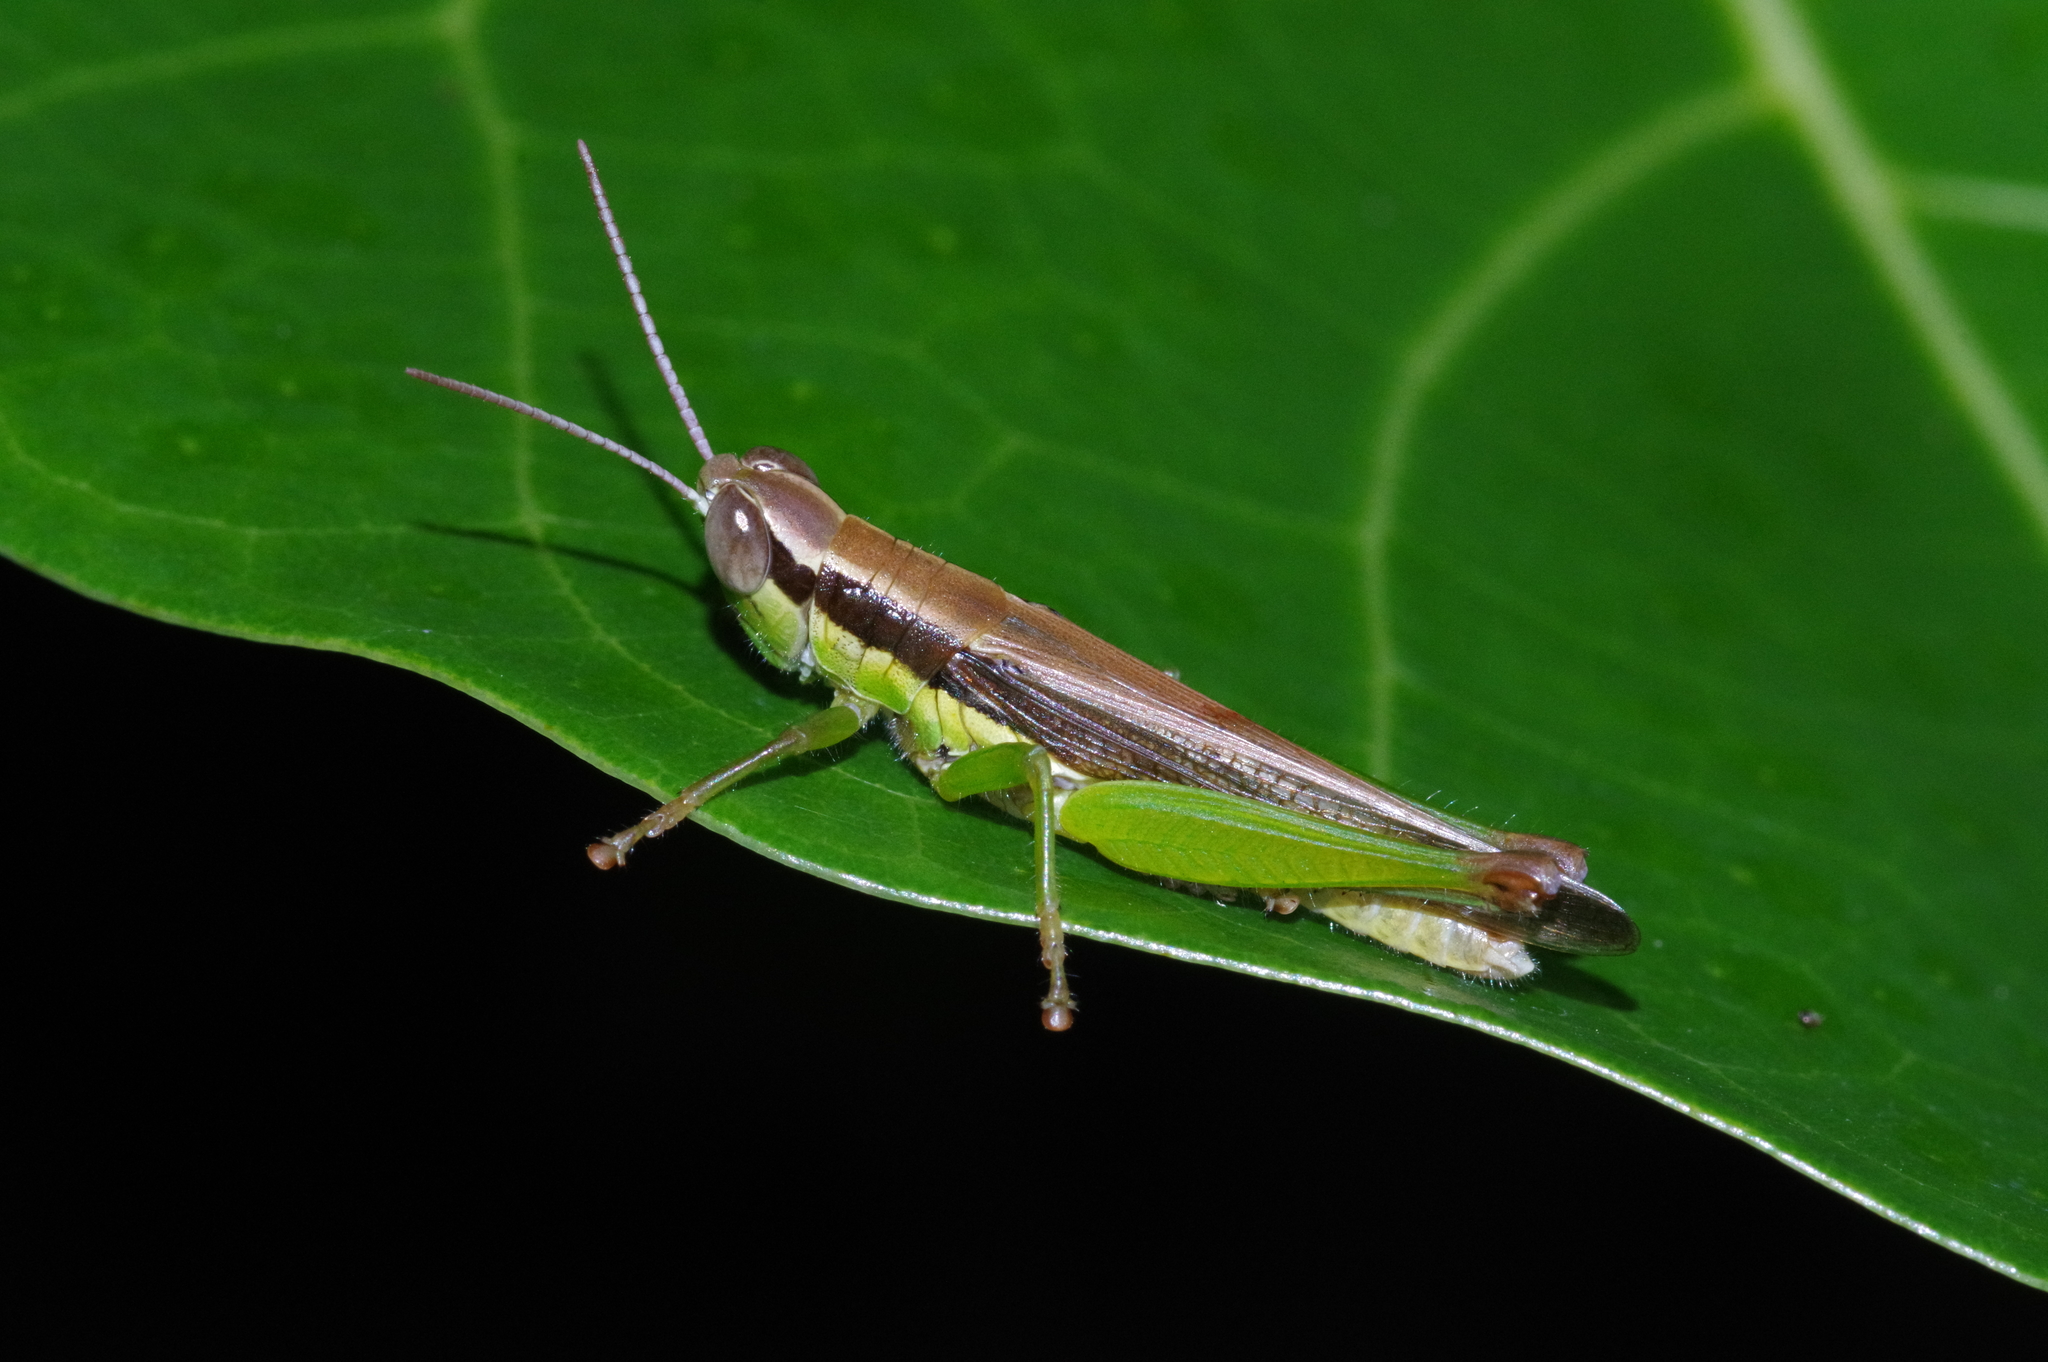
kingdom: Animalia
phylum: Arthropoda
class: Insecta
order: Orthoptera
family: Acrididae
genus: Oxya
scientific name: Oxya intricata
